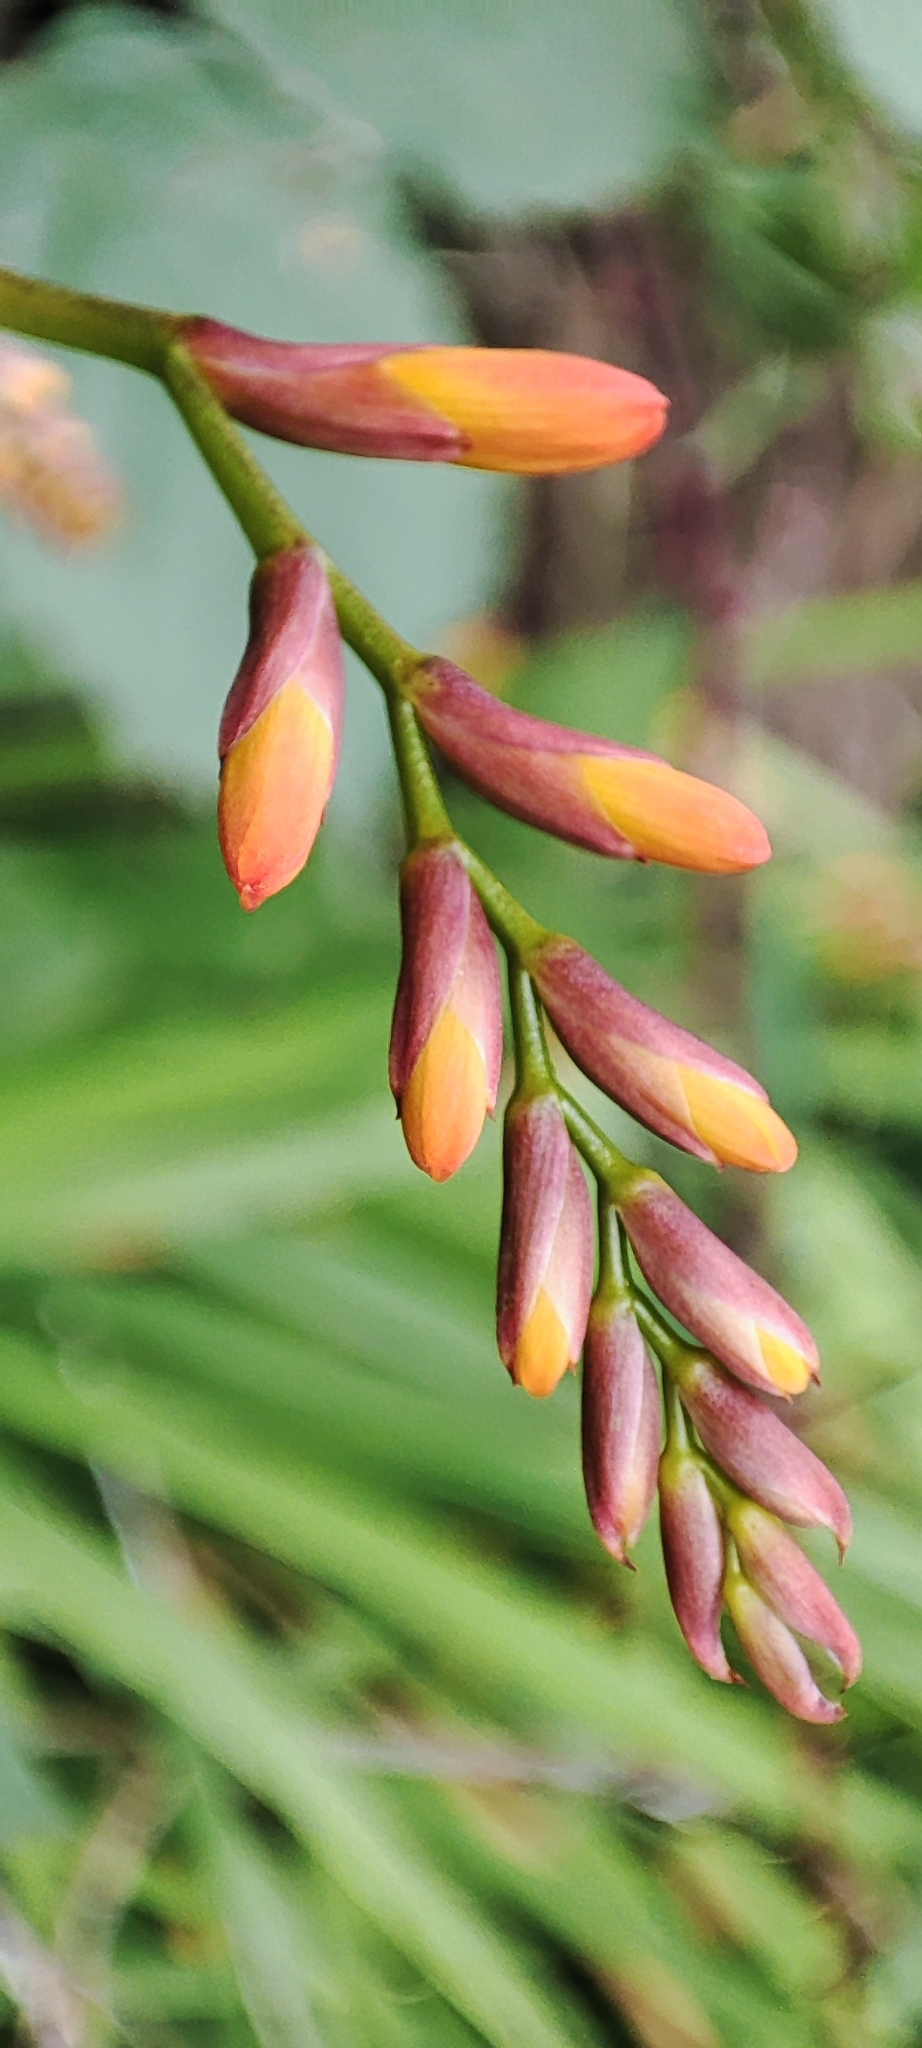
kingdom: Plantae
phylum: Tracheophyta
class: Liliopsida
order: Asparagales
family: Iridaceae
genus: Crocosmia
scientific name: Crocosmia crocosmiiflora
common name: Montbretia
